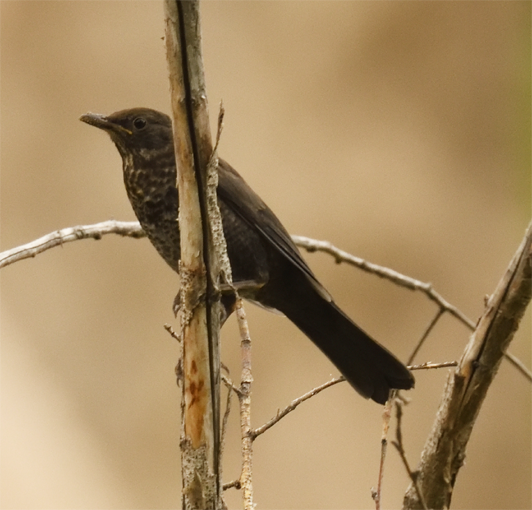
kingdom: Animalia
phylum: Chordata
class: Aves
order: Passeriformes
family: Turdidae
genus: Turdus
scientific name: Turdus merula
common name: Common blackbird
